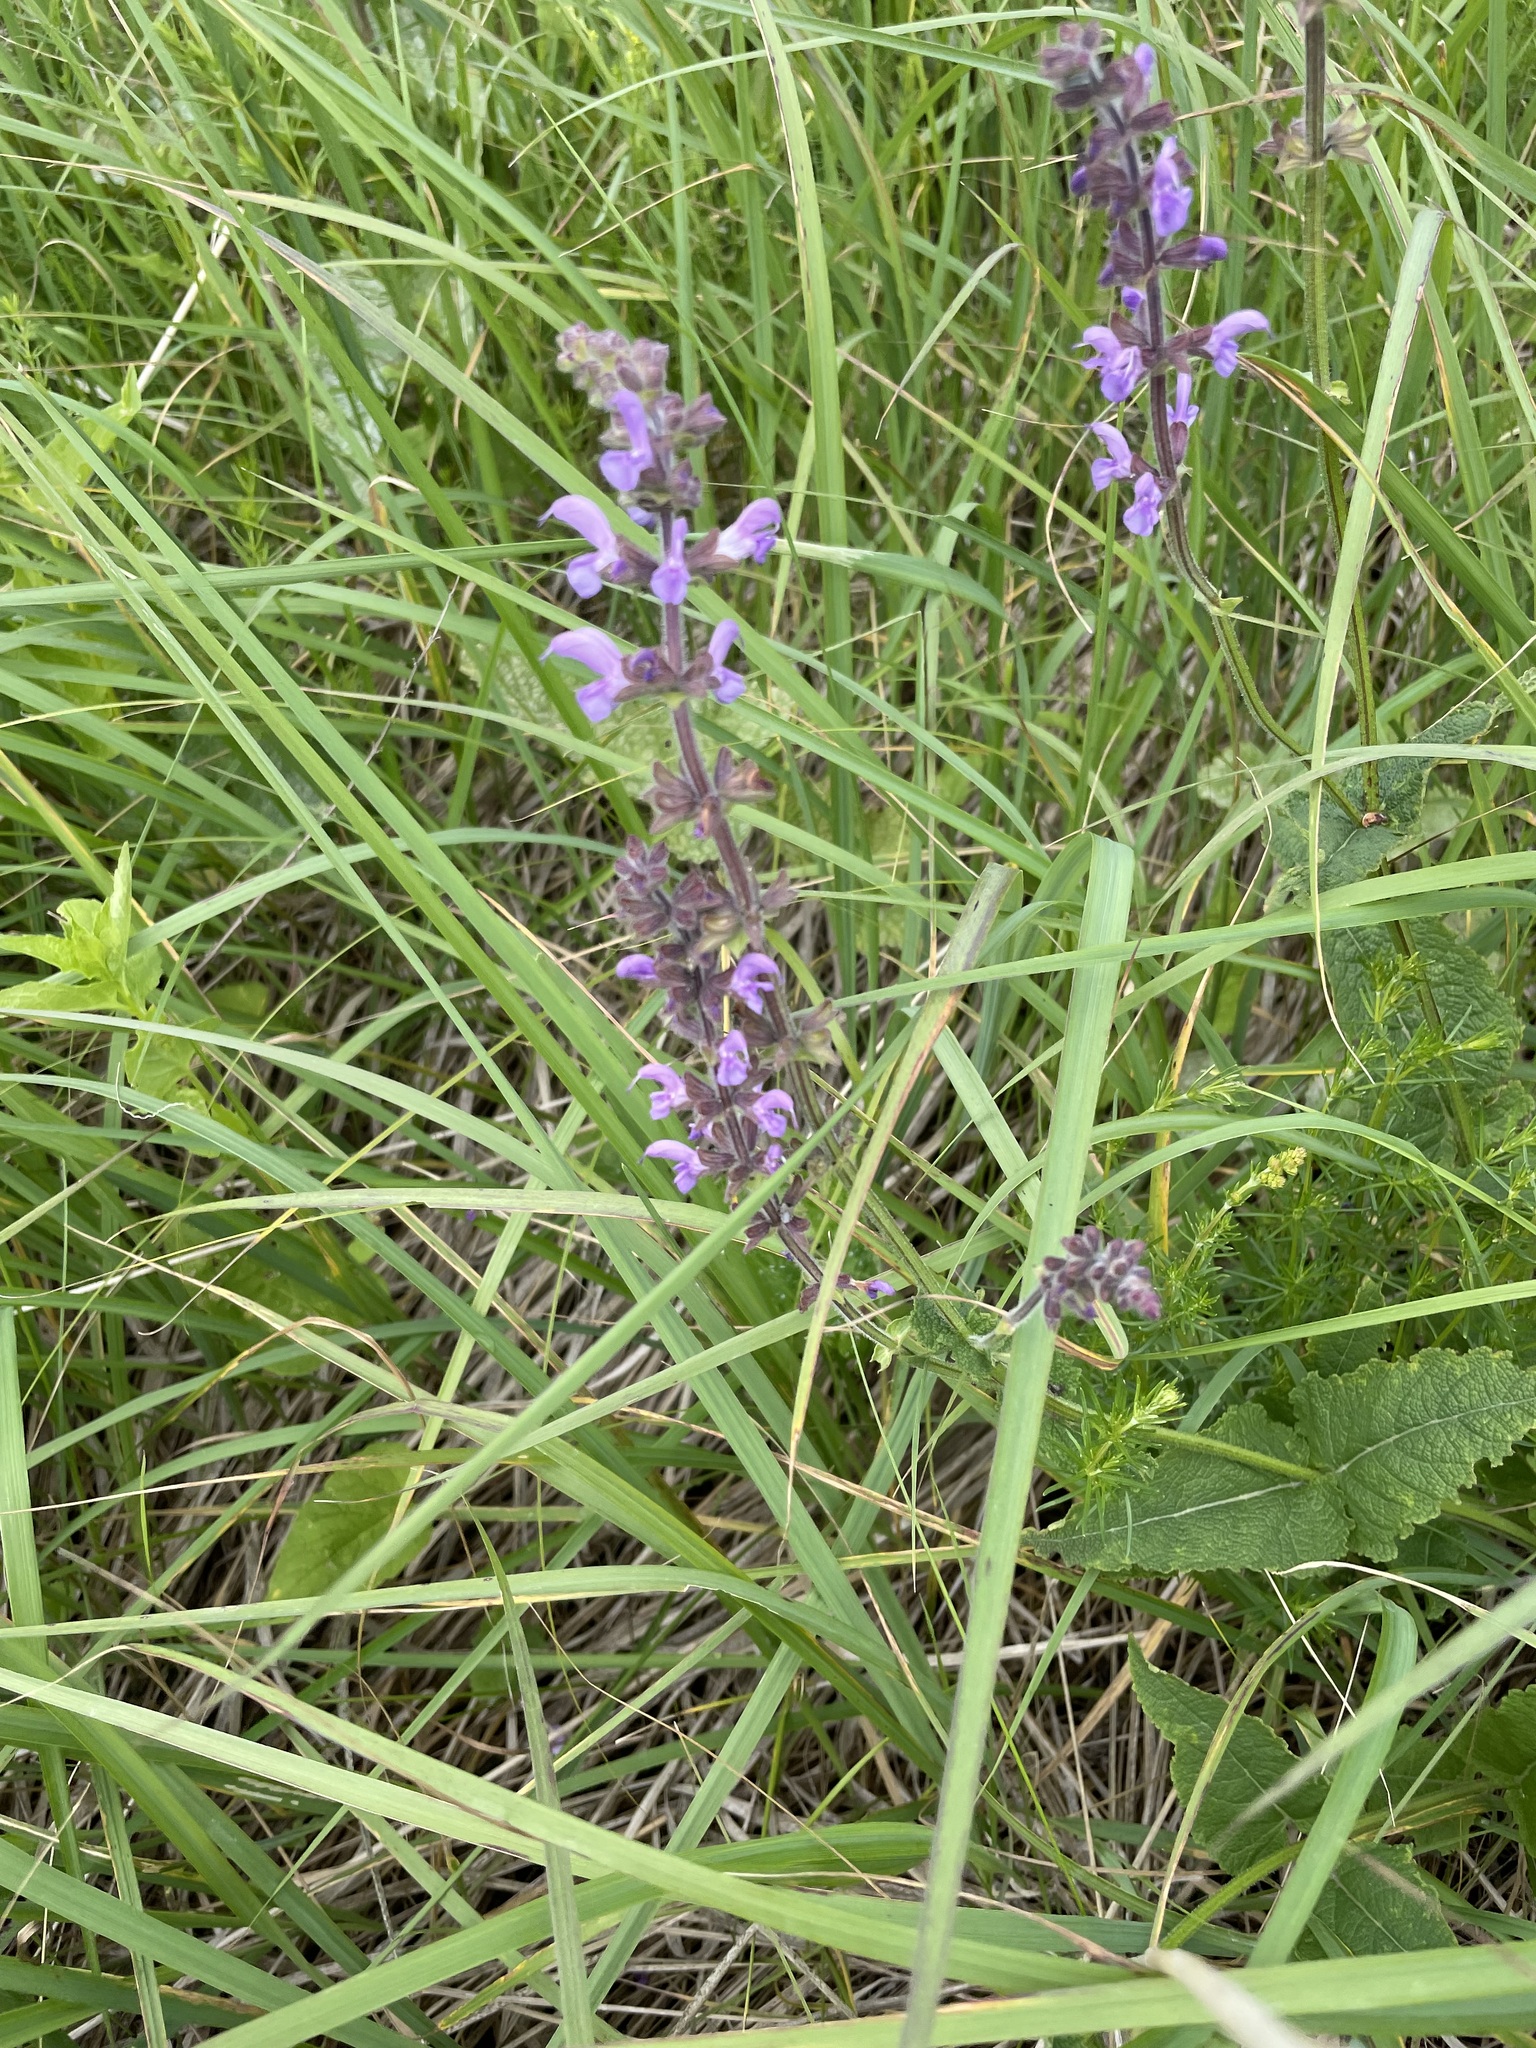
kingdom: Plantae
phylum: Tracheophyta
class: Magnoliopsida
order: Lamiales
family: Lamiaceae
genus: Salvia
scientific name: Salvia dumetorum
